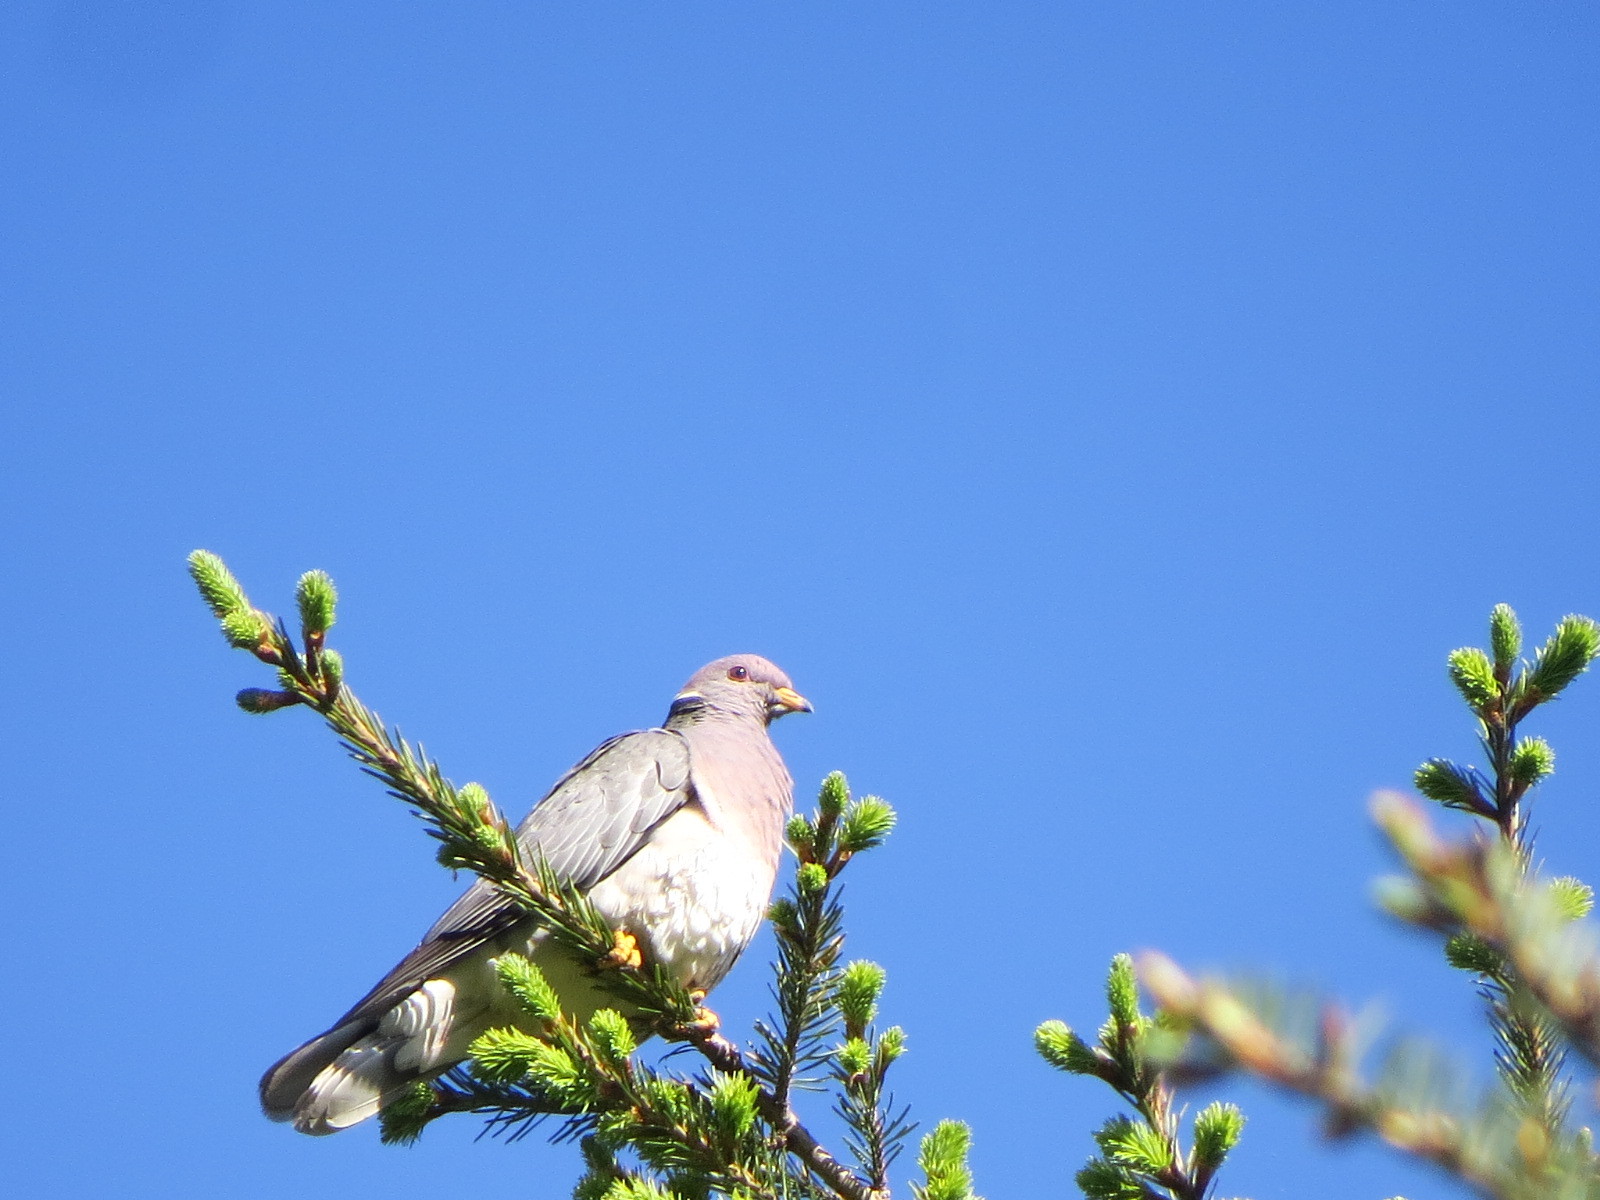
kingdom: Animalia
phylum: Chordata
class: Aves
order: Columbiformes
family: Columbidae
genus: Patagioenas
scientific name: Patagioenas fasciata
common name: Band-tailed pigeon
